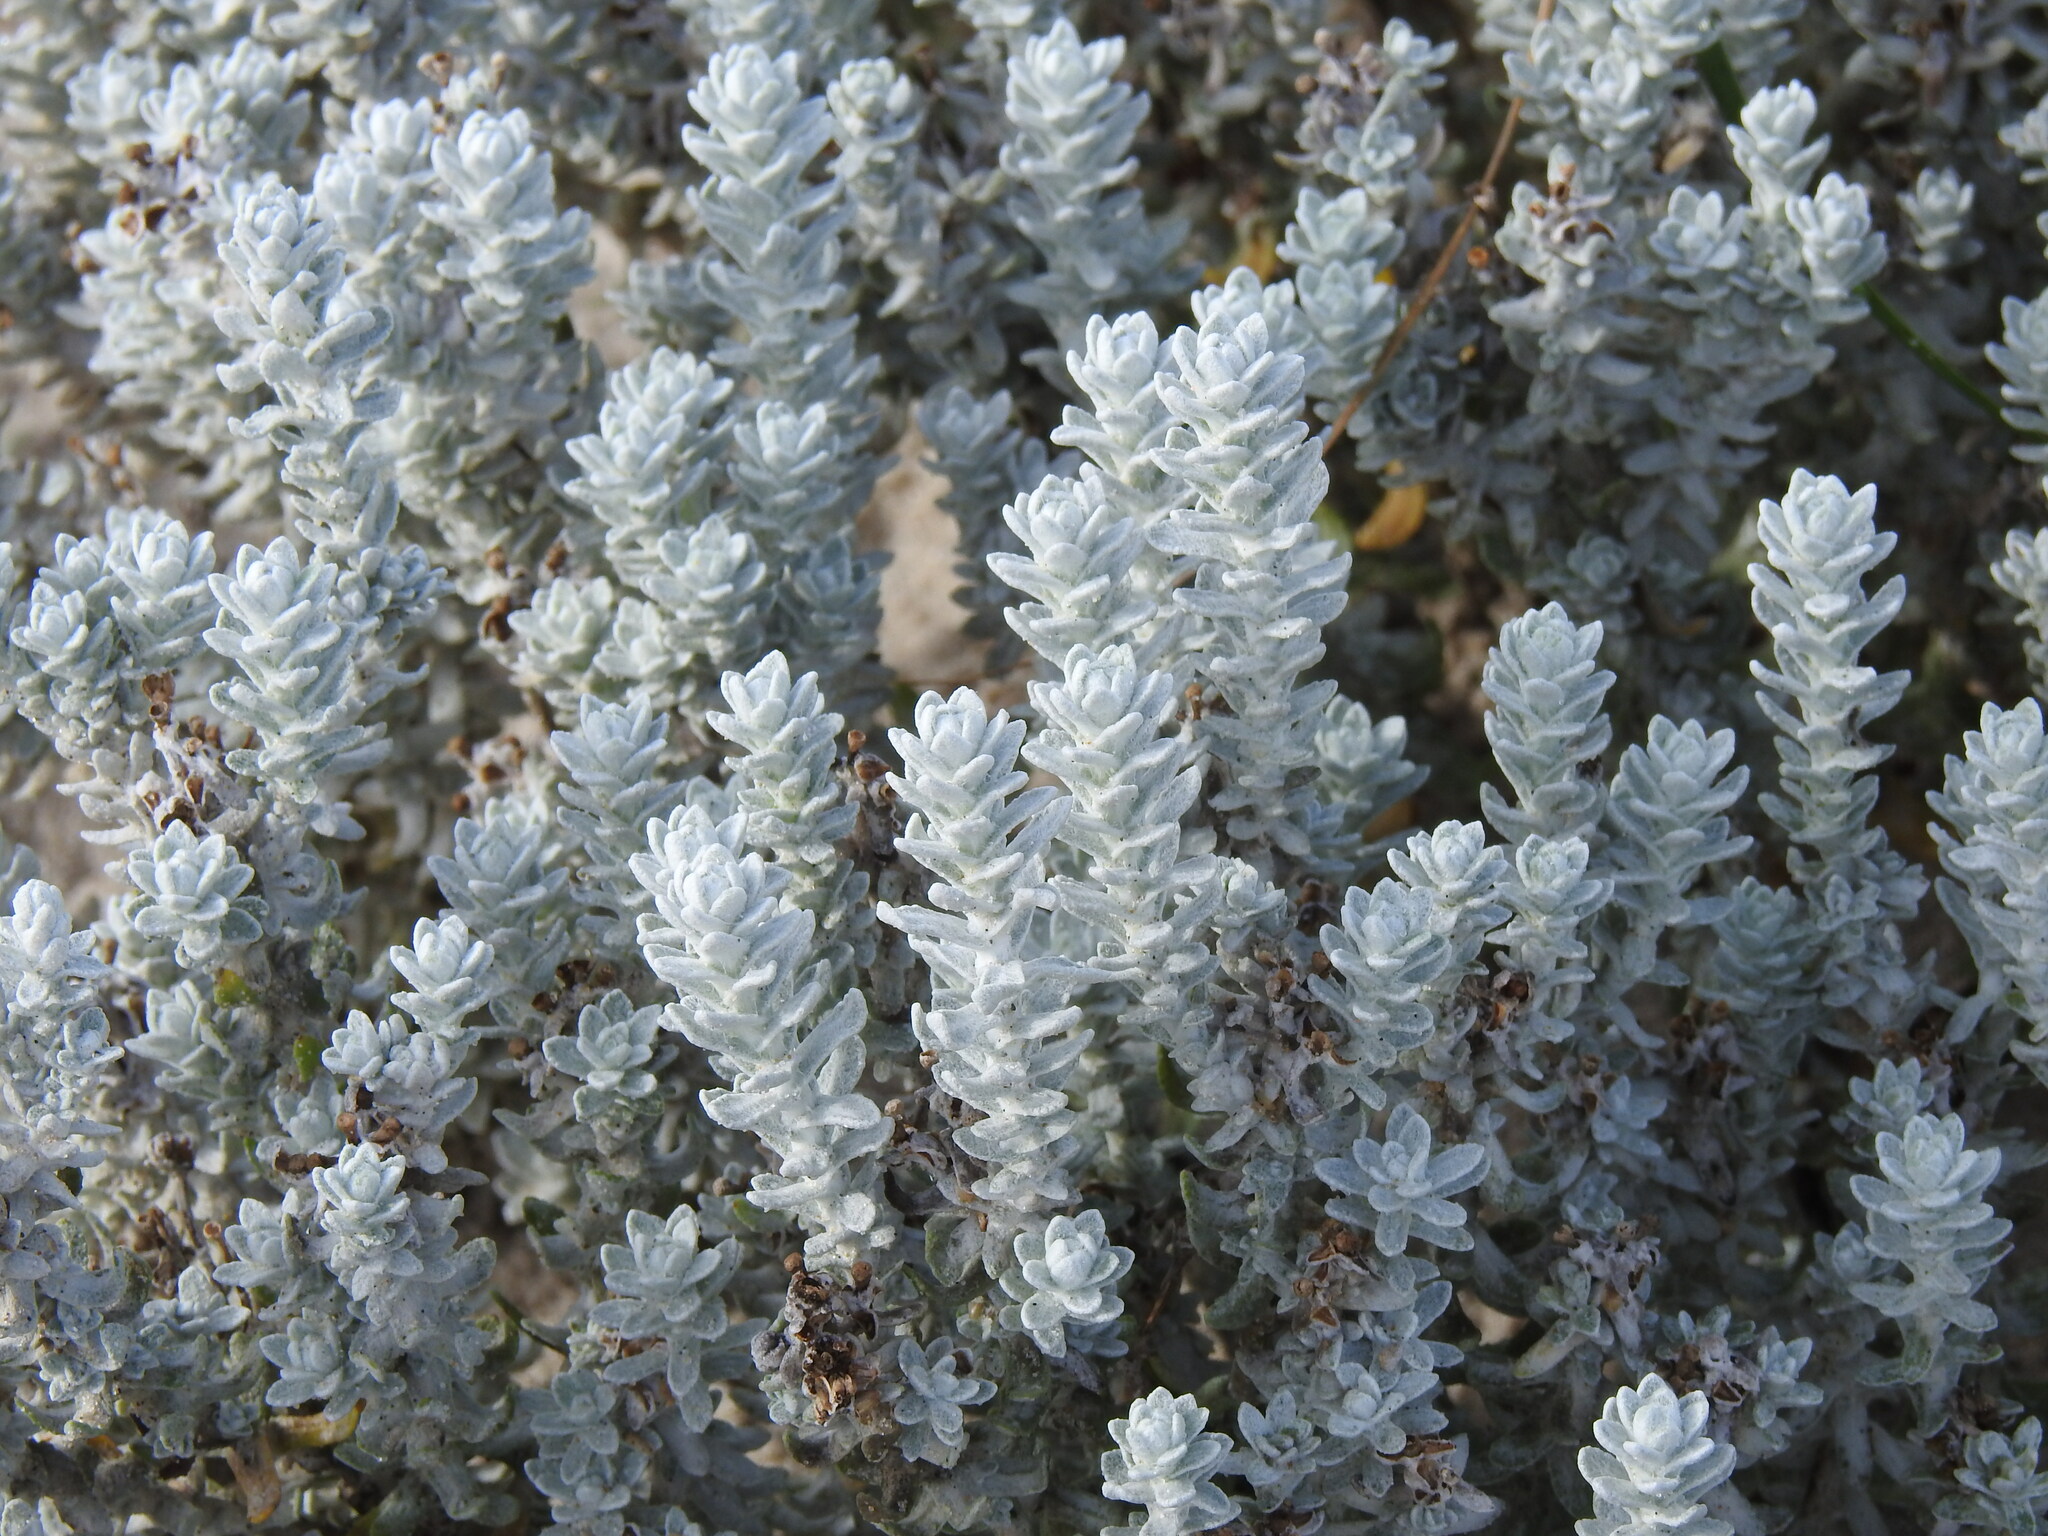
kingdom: Plantae
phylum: Tracheophyta
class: Magnoliopsida
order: Asterales
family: Asteraceae
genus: Achillea
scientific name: Achillea maritima
